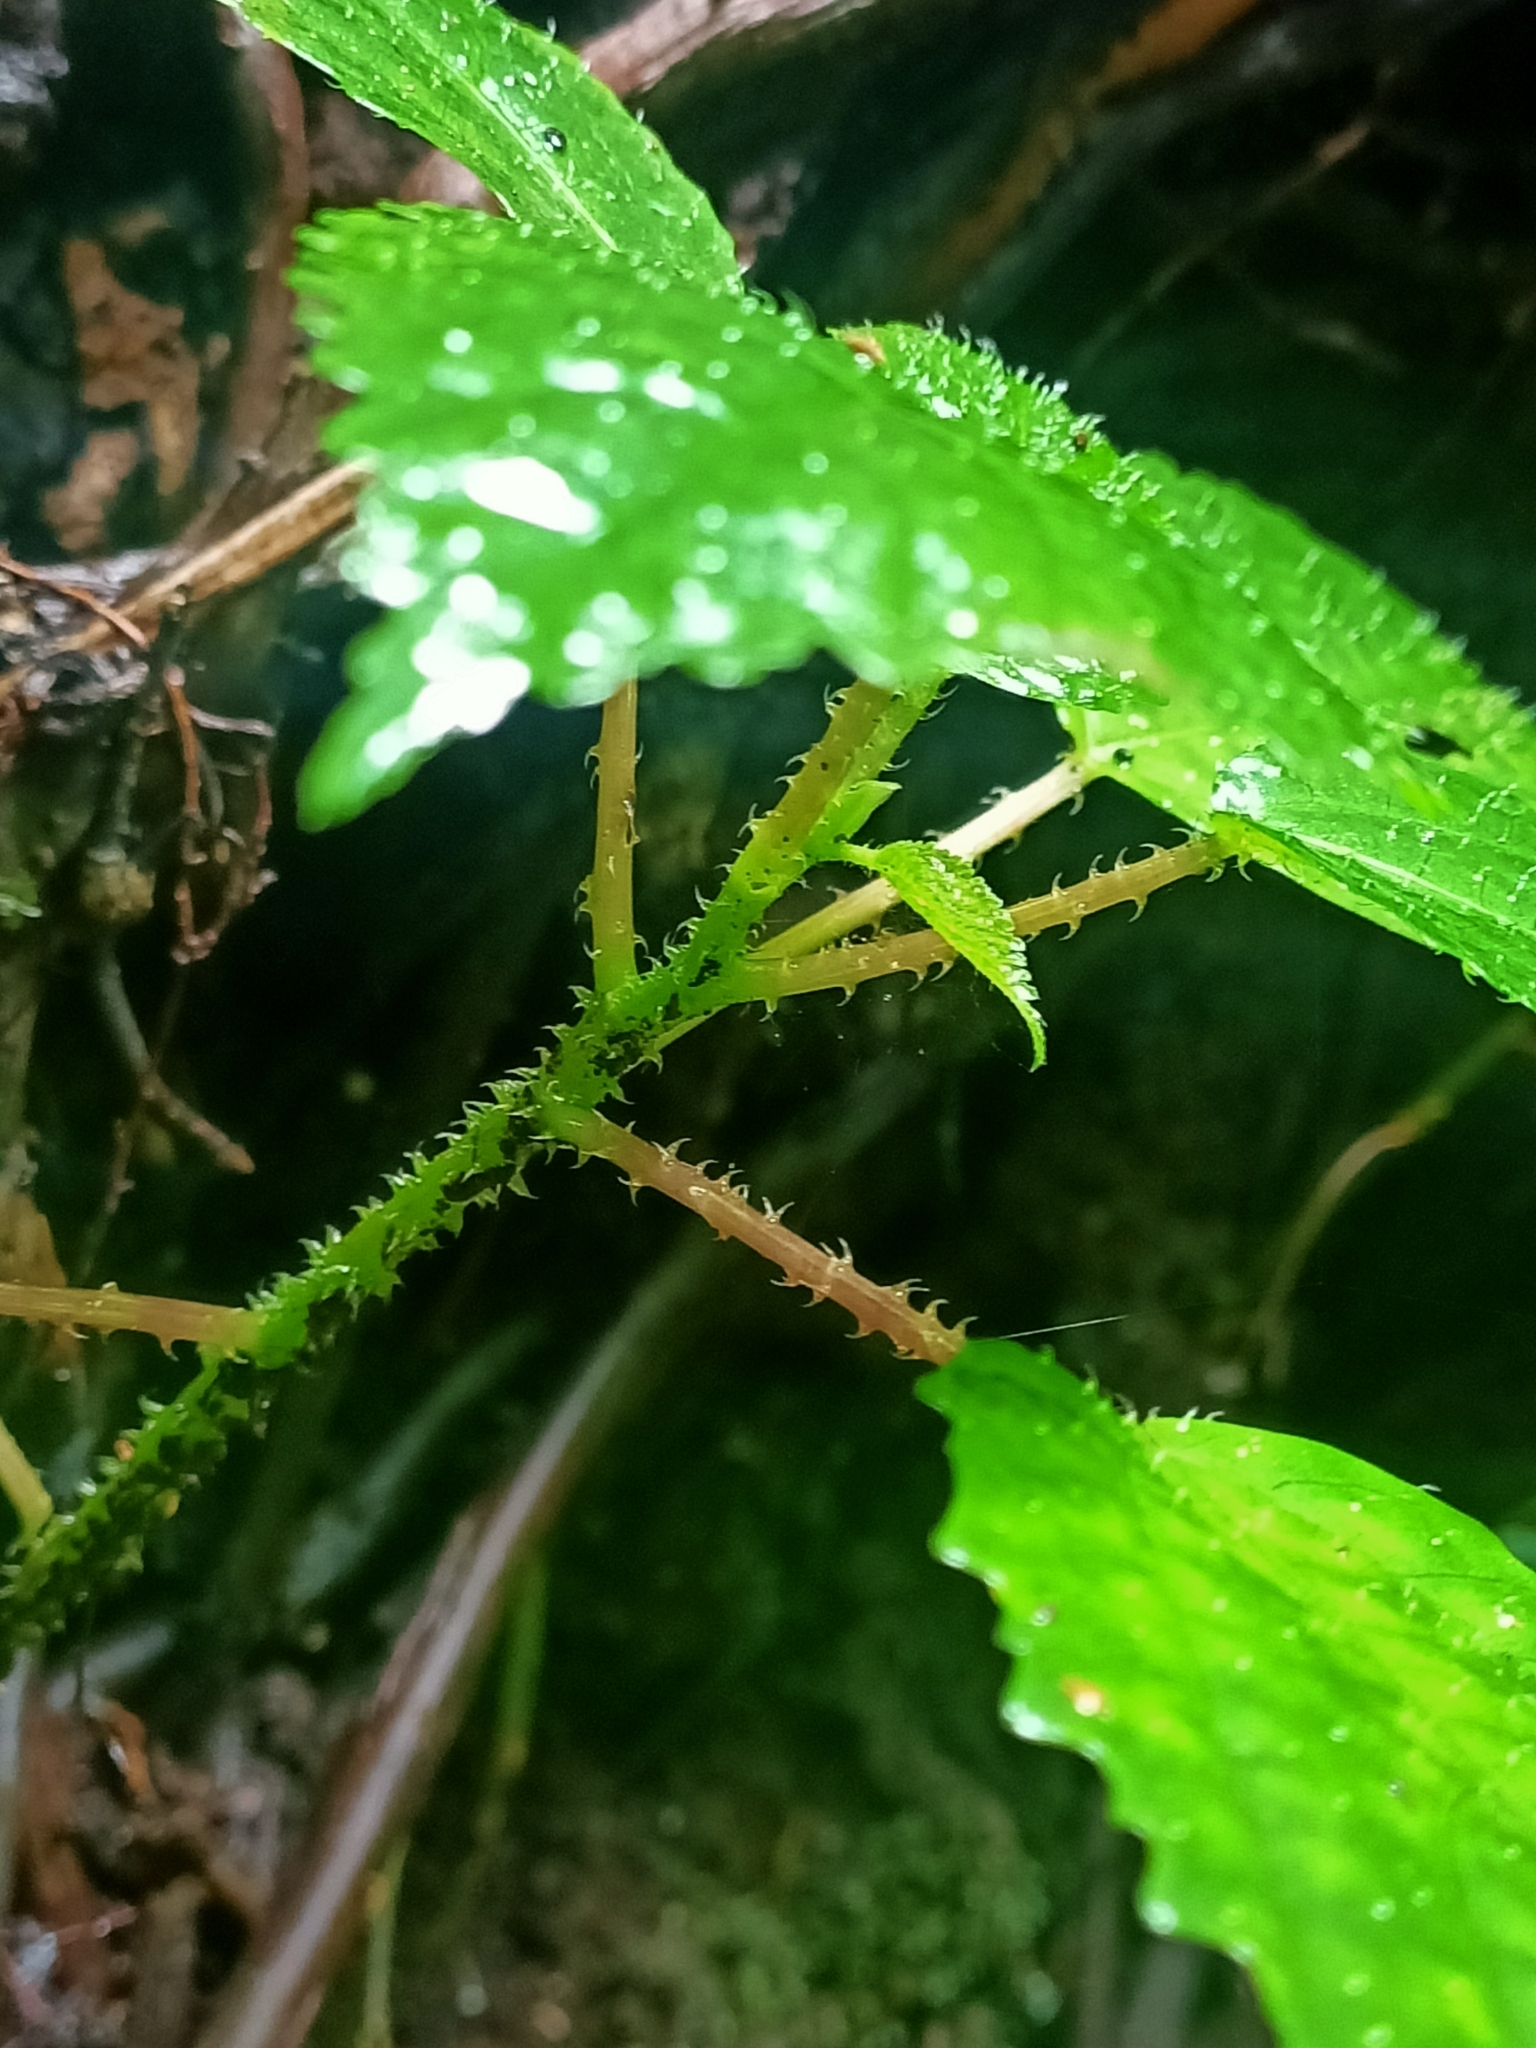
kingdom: Plantae
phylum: Tracheophyta
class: Magnoliopsida
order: Rosales
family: Urticaceae
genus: Dendrocnide
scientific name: Dendrocnide photiniphylla
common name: Shiny-leaved stinging tree
